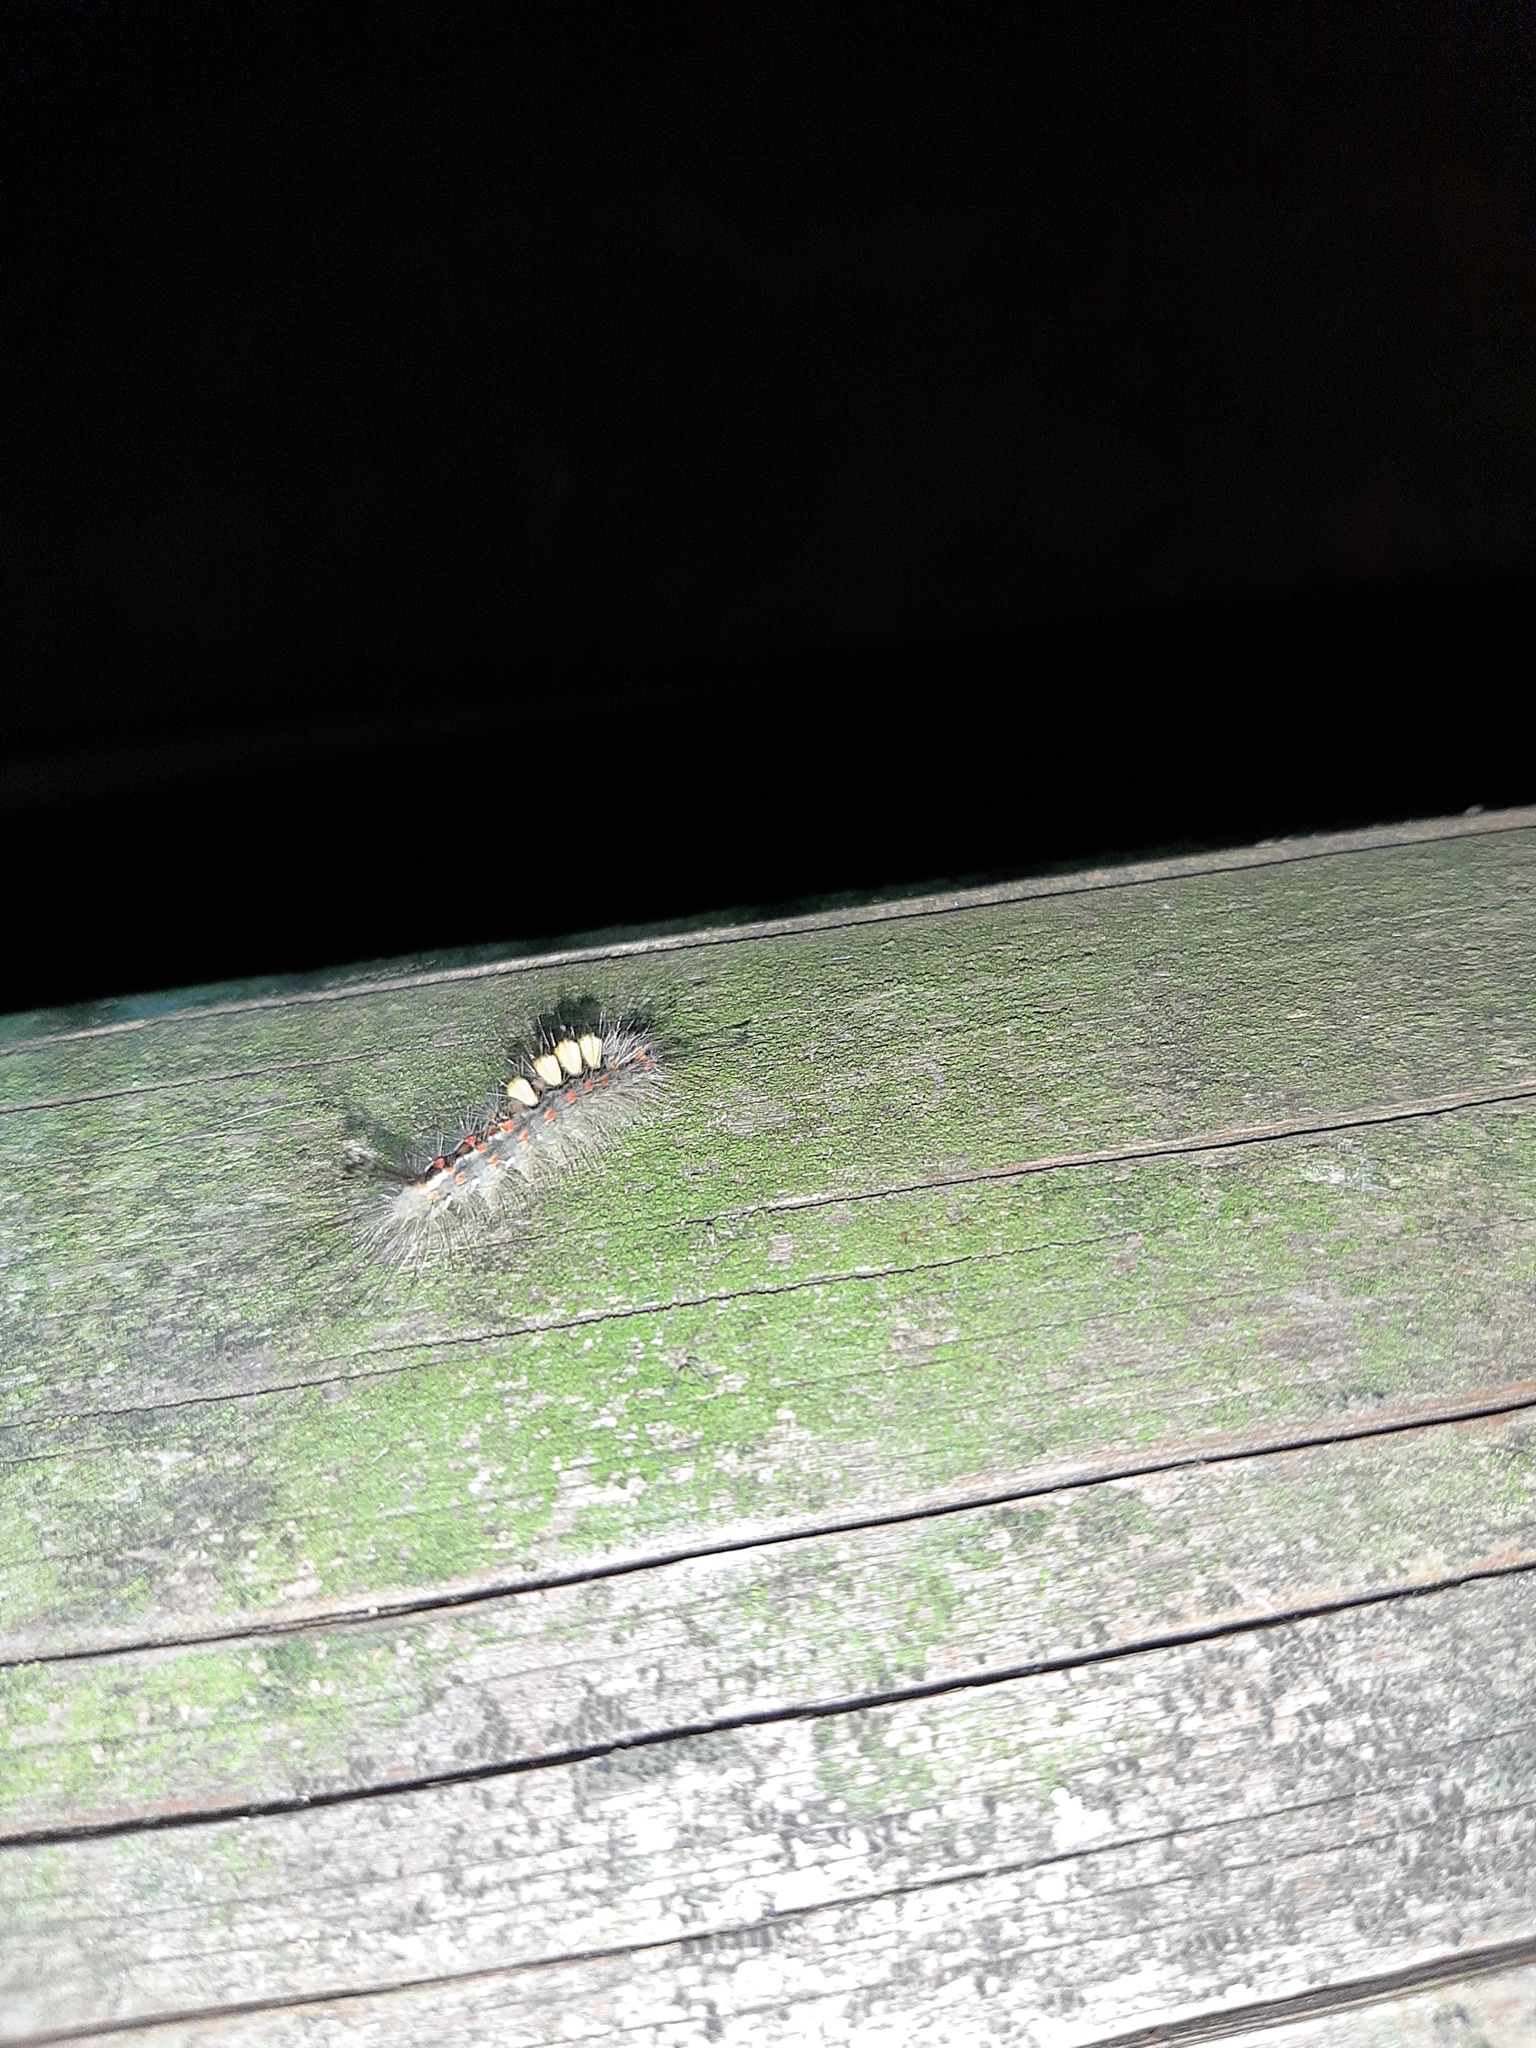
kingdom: Animalia
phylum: Arthropoda
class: Insecta
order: Lepidoptera
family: Erebidae
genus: Orgyia
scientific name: Orgyia antiqua
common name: Vapourer
